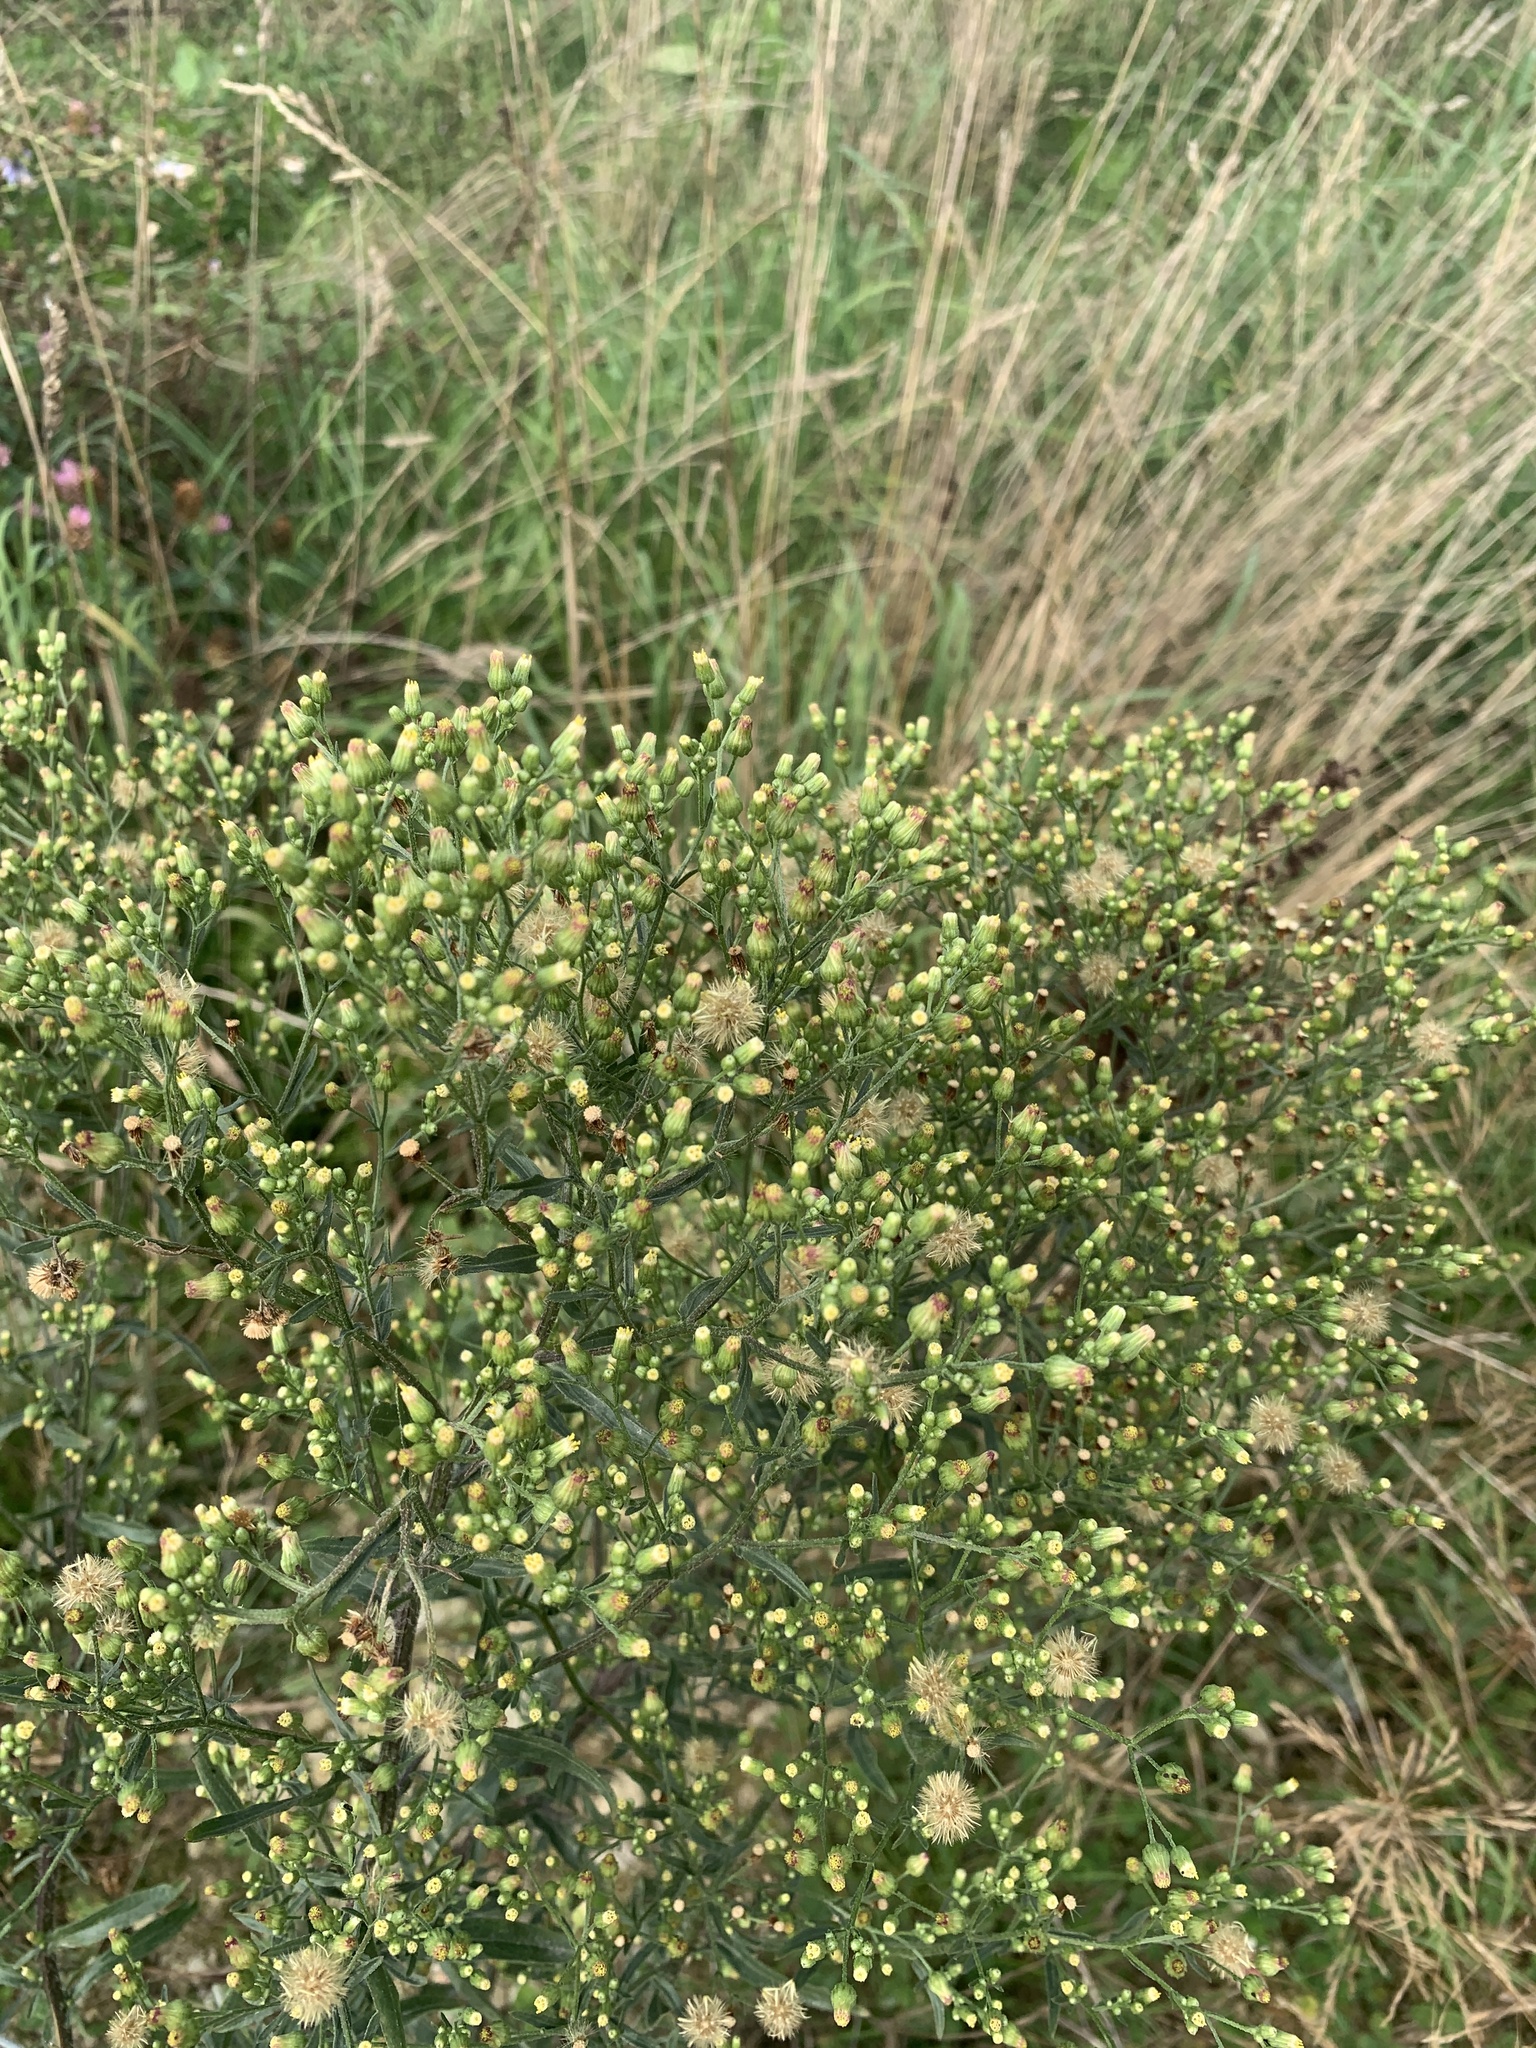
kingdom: Plantae
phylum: Tracheophyta
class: Magnoliopsida
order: Asterales
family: Asteraceae
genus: Erigeron
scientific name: Erigeron canadensis
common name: Canadian fleabane
